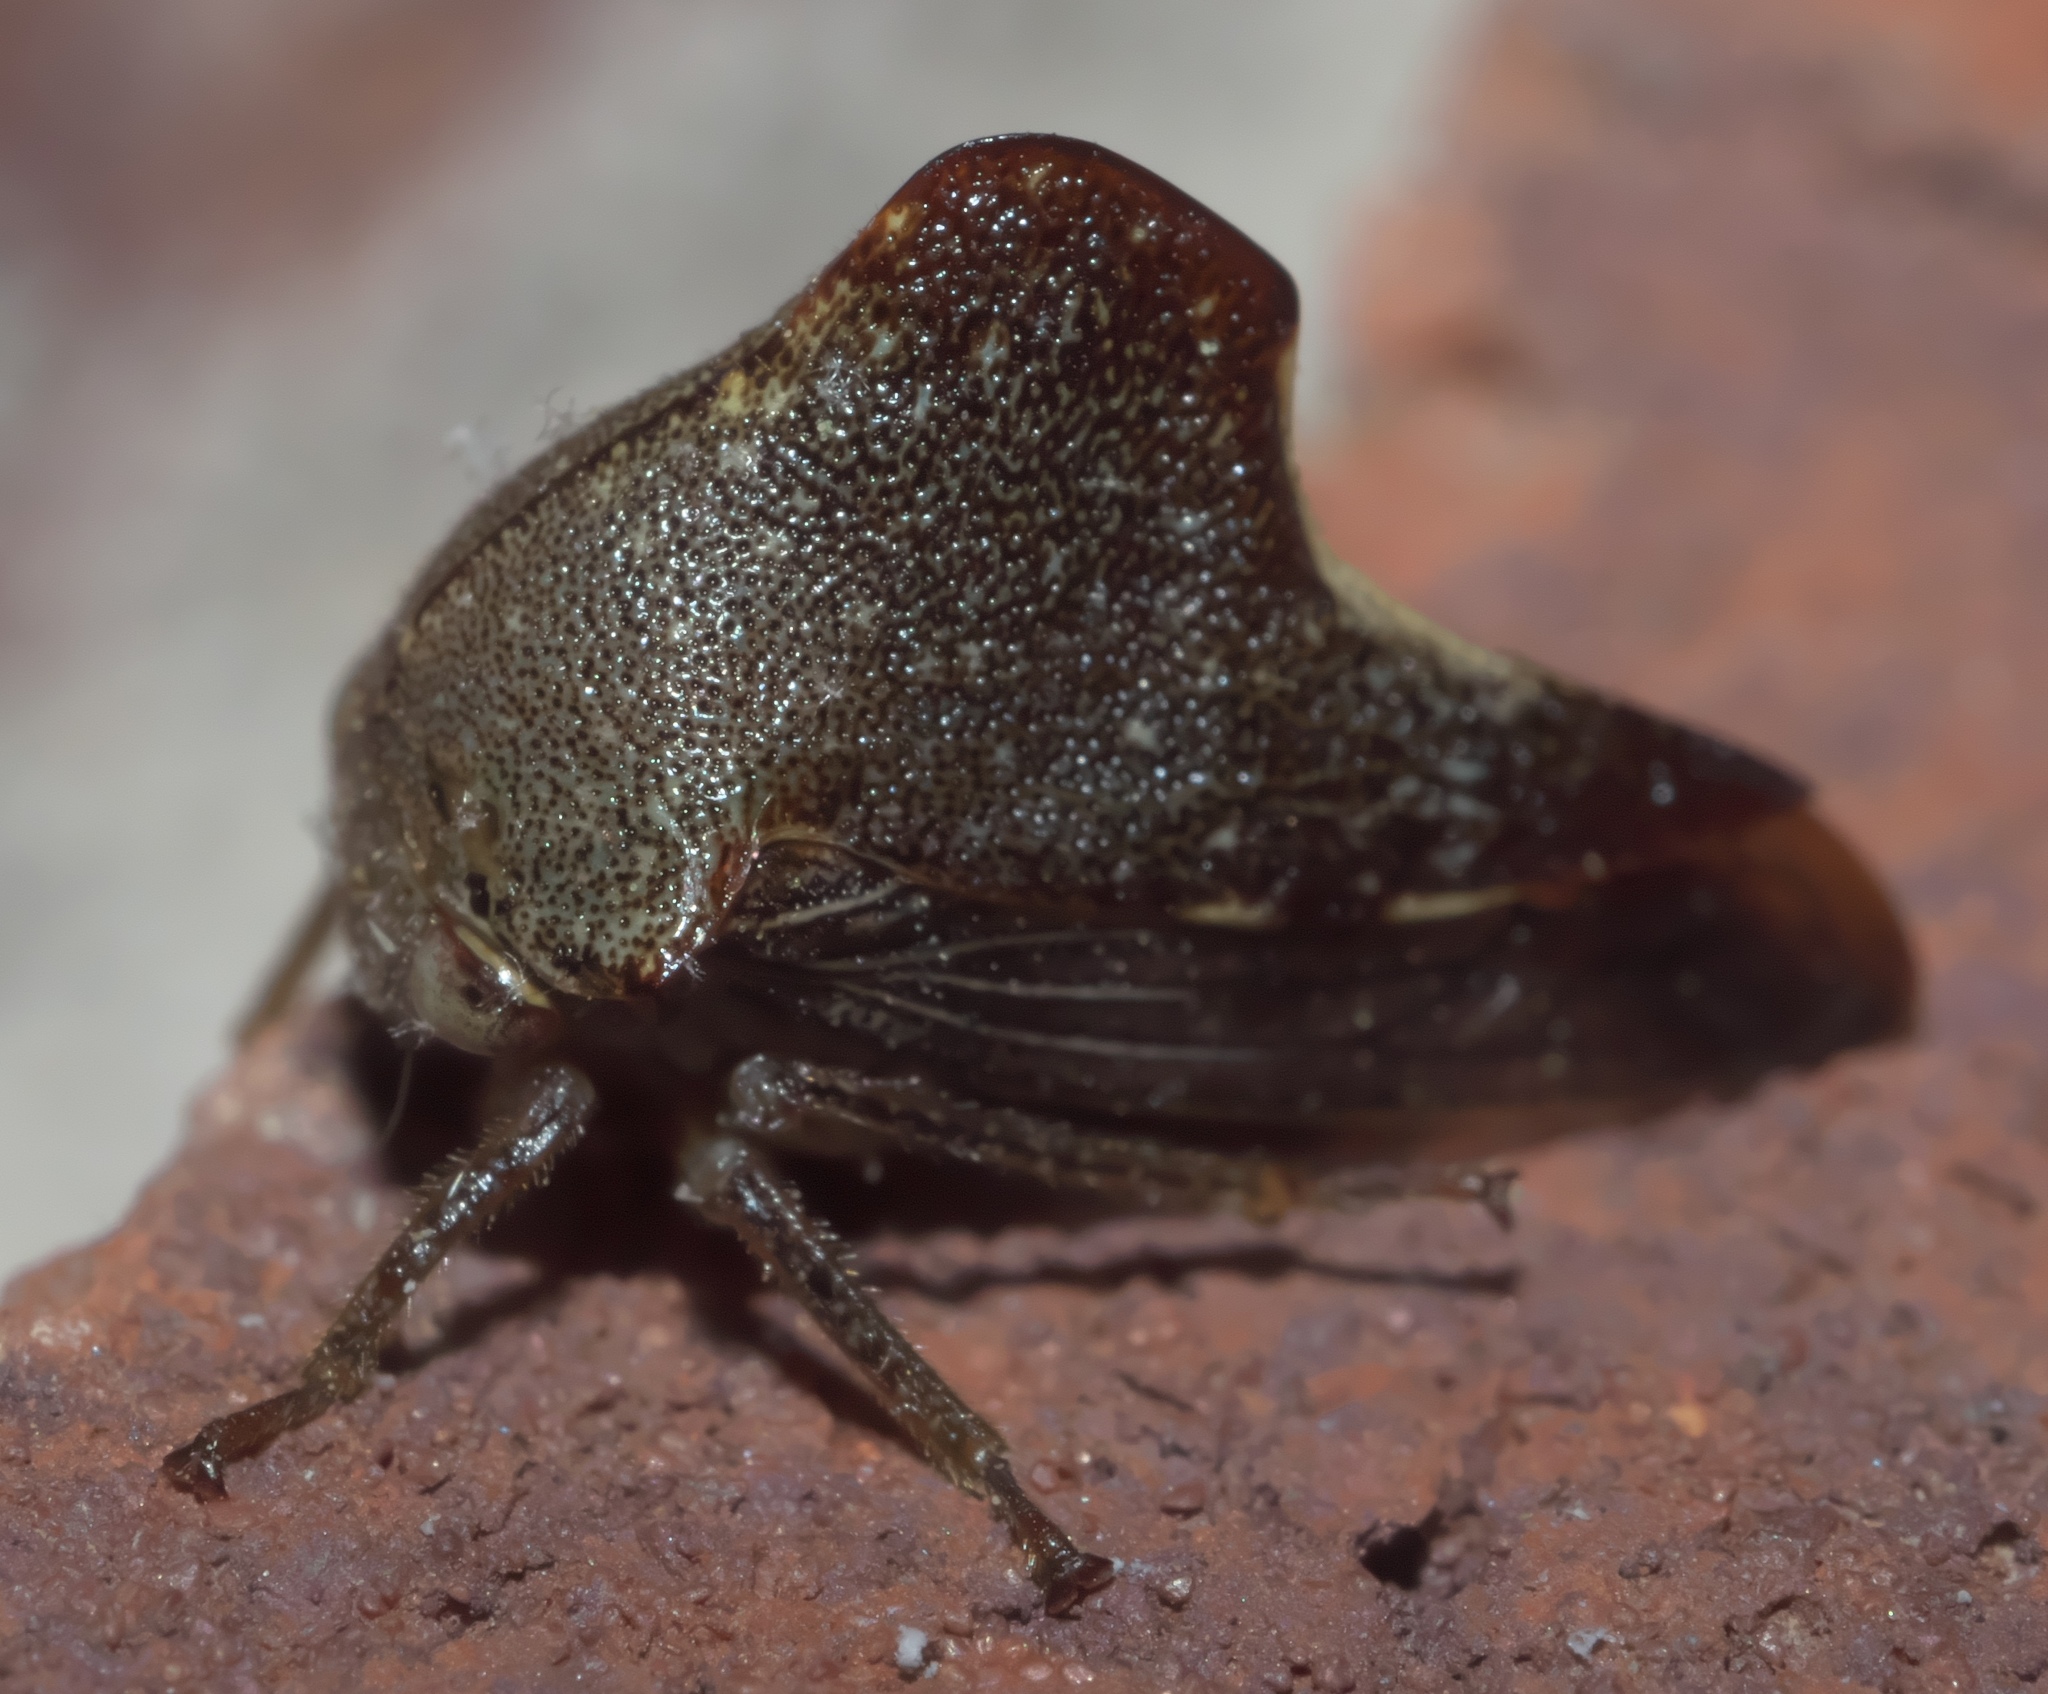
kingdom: Animalia
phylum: Arthropoda
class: Insecta
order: Hemiptera
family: Membracidae
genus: Telamona
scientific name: Telamona monticola
